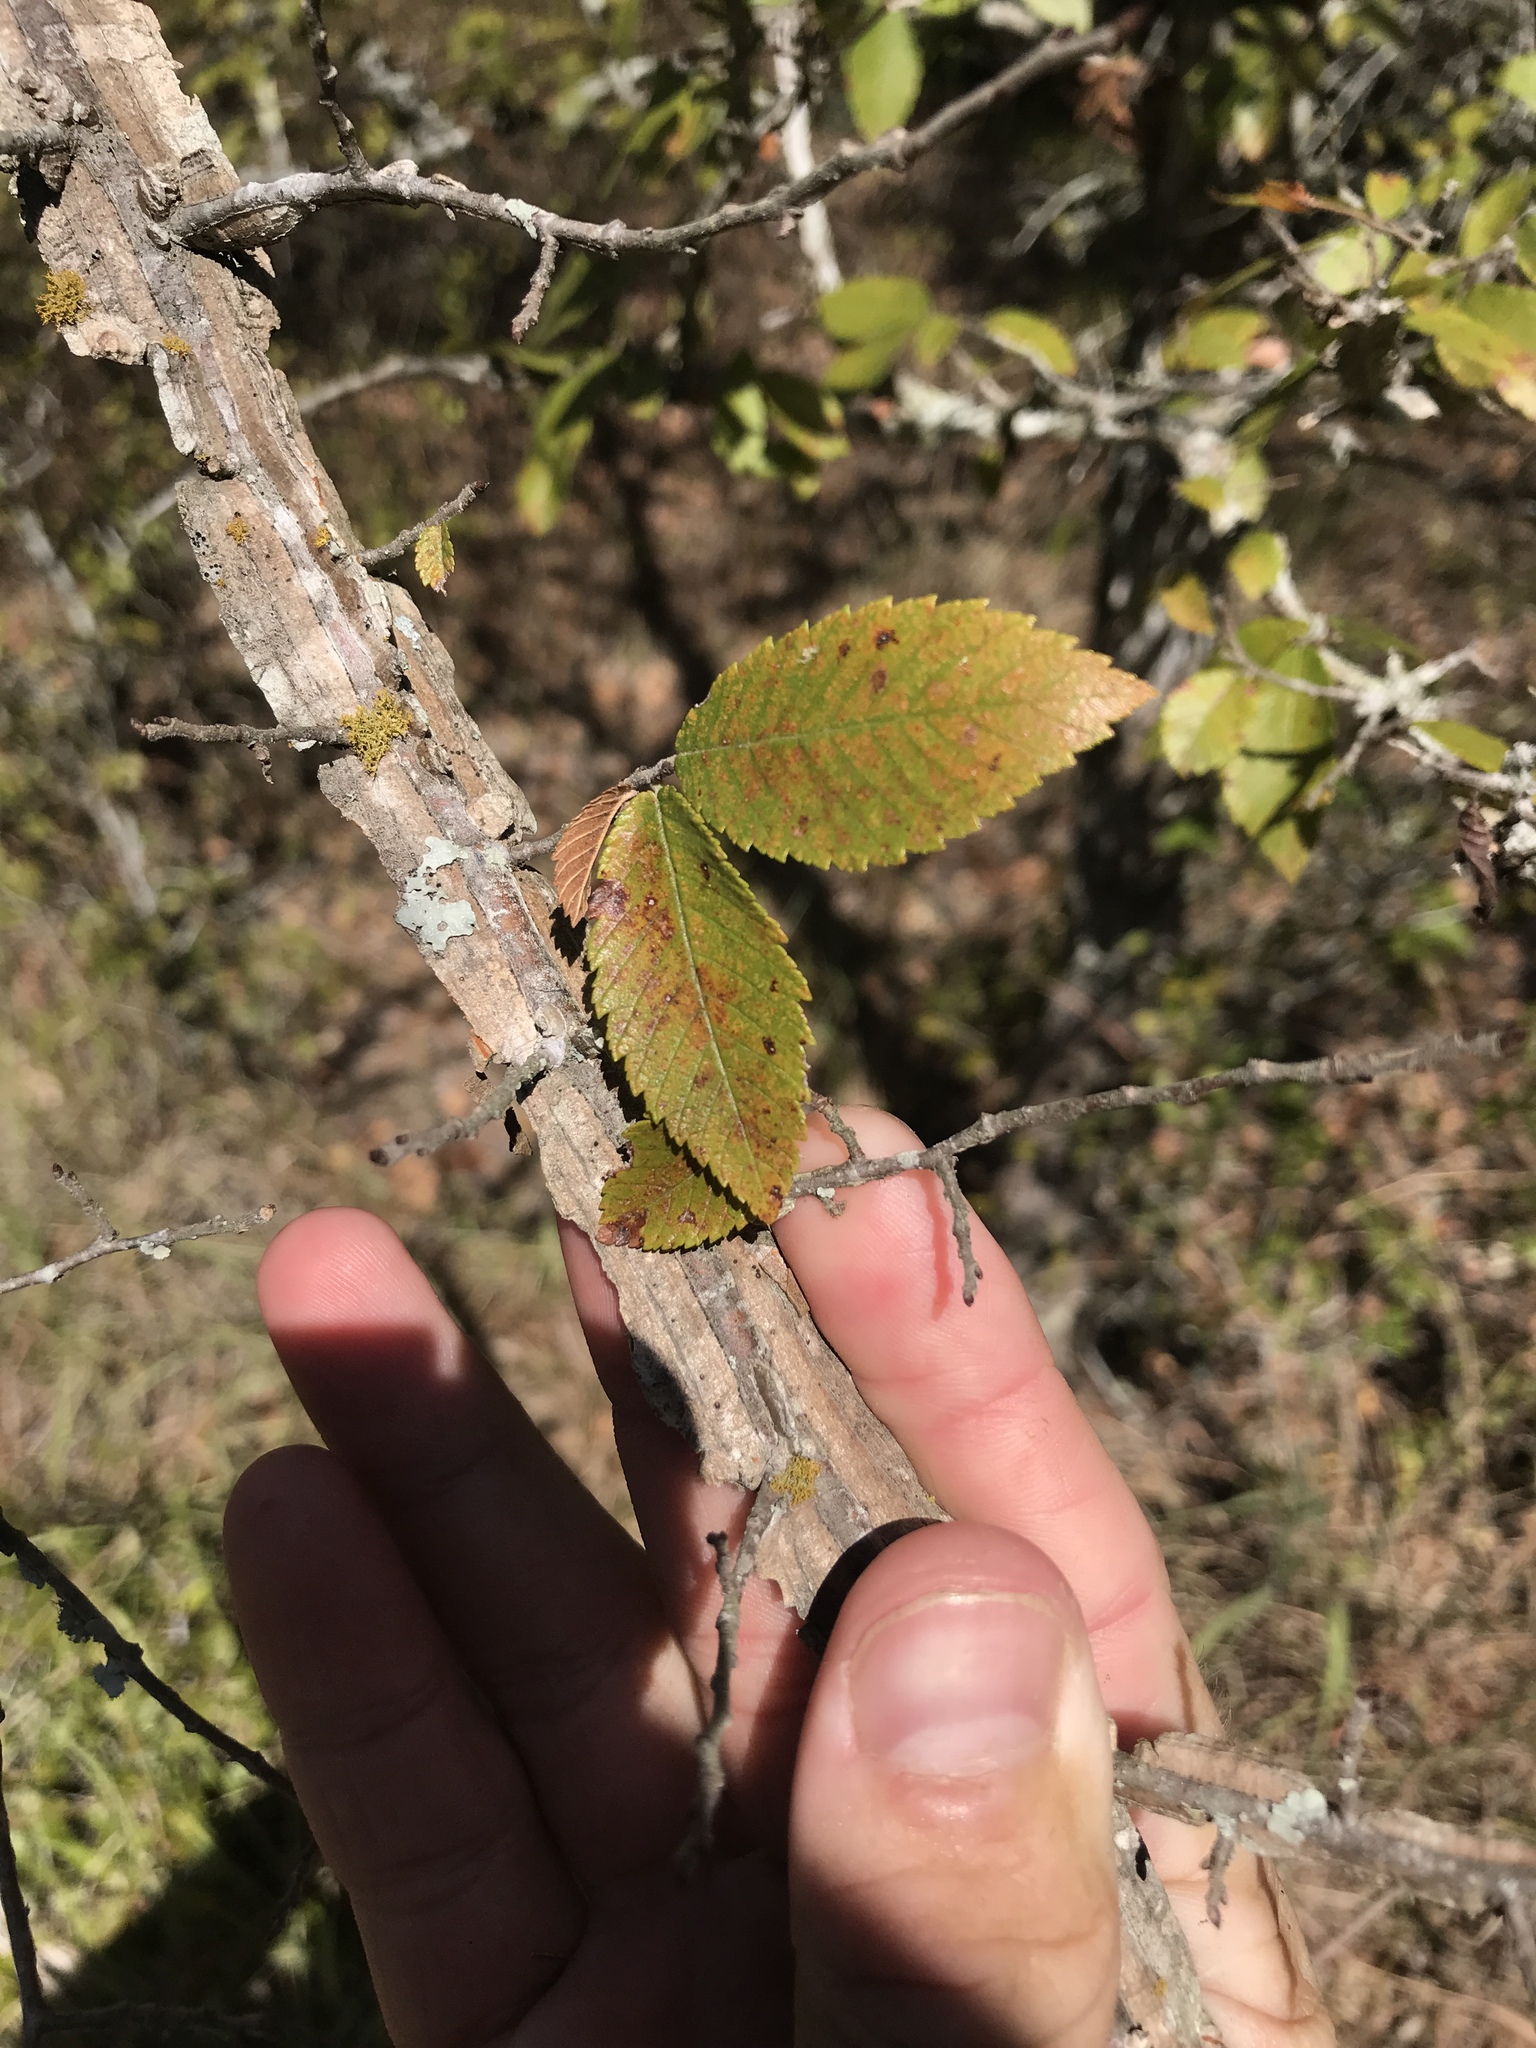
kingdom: Plantae
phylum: Tracheophyta
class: Magnoliopsida
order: Rosales
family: Ulmaceae
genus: Ulmus
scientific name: Ulmus alata
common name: Winged elm
